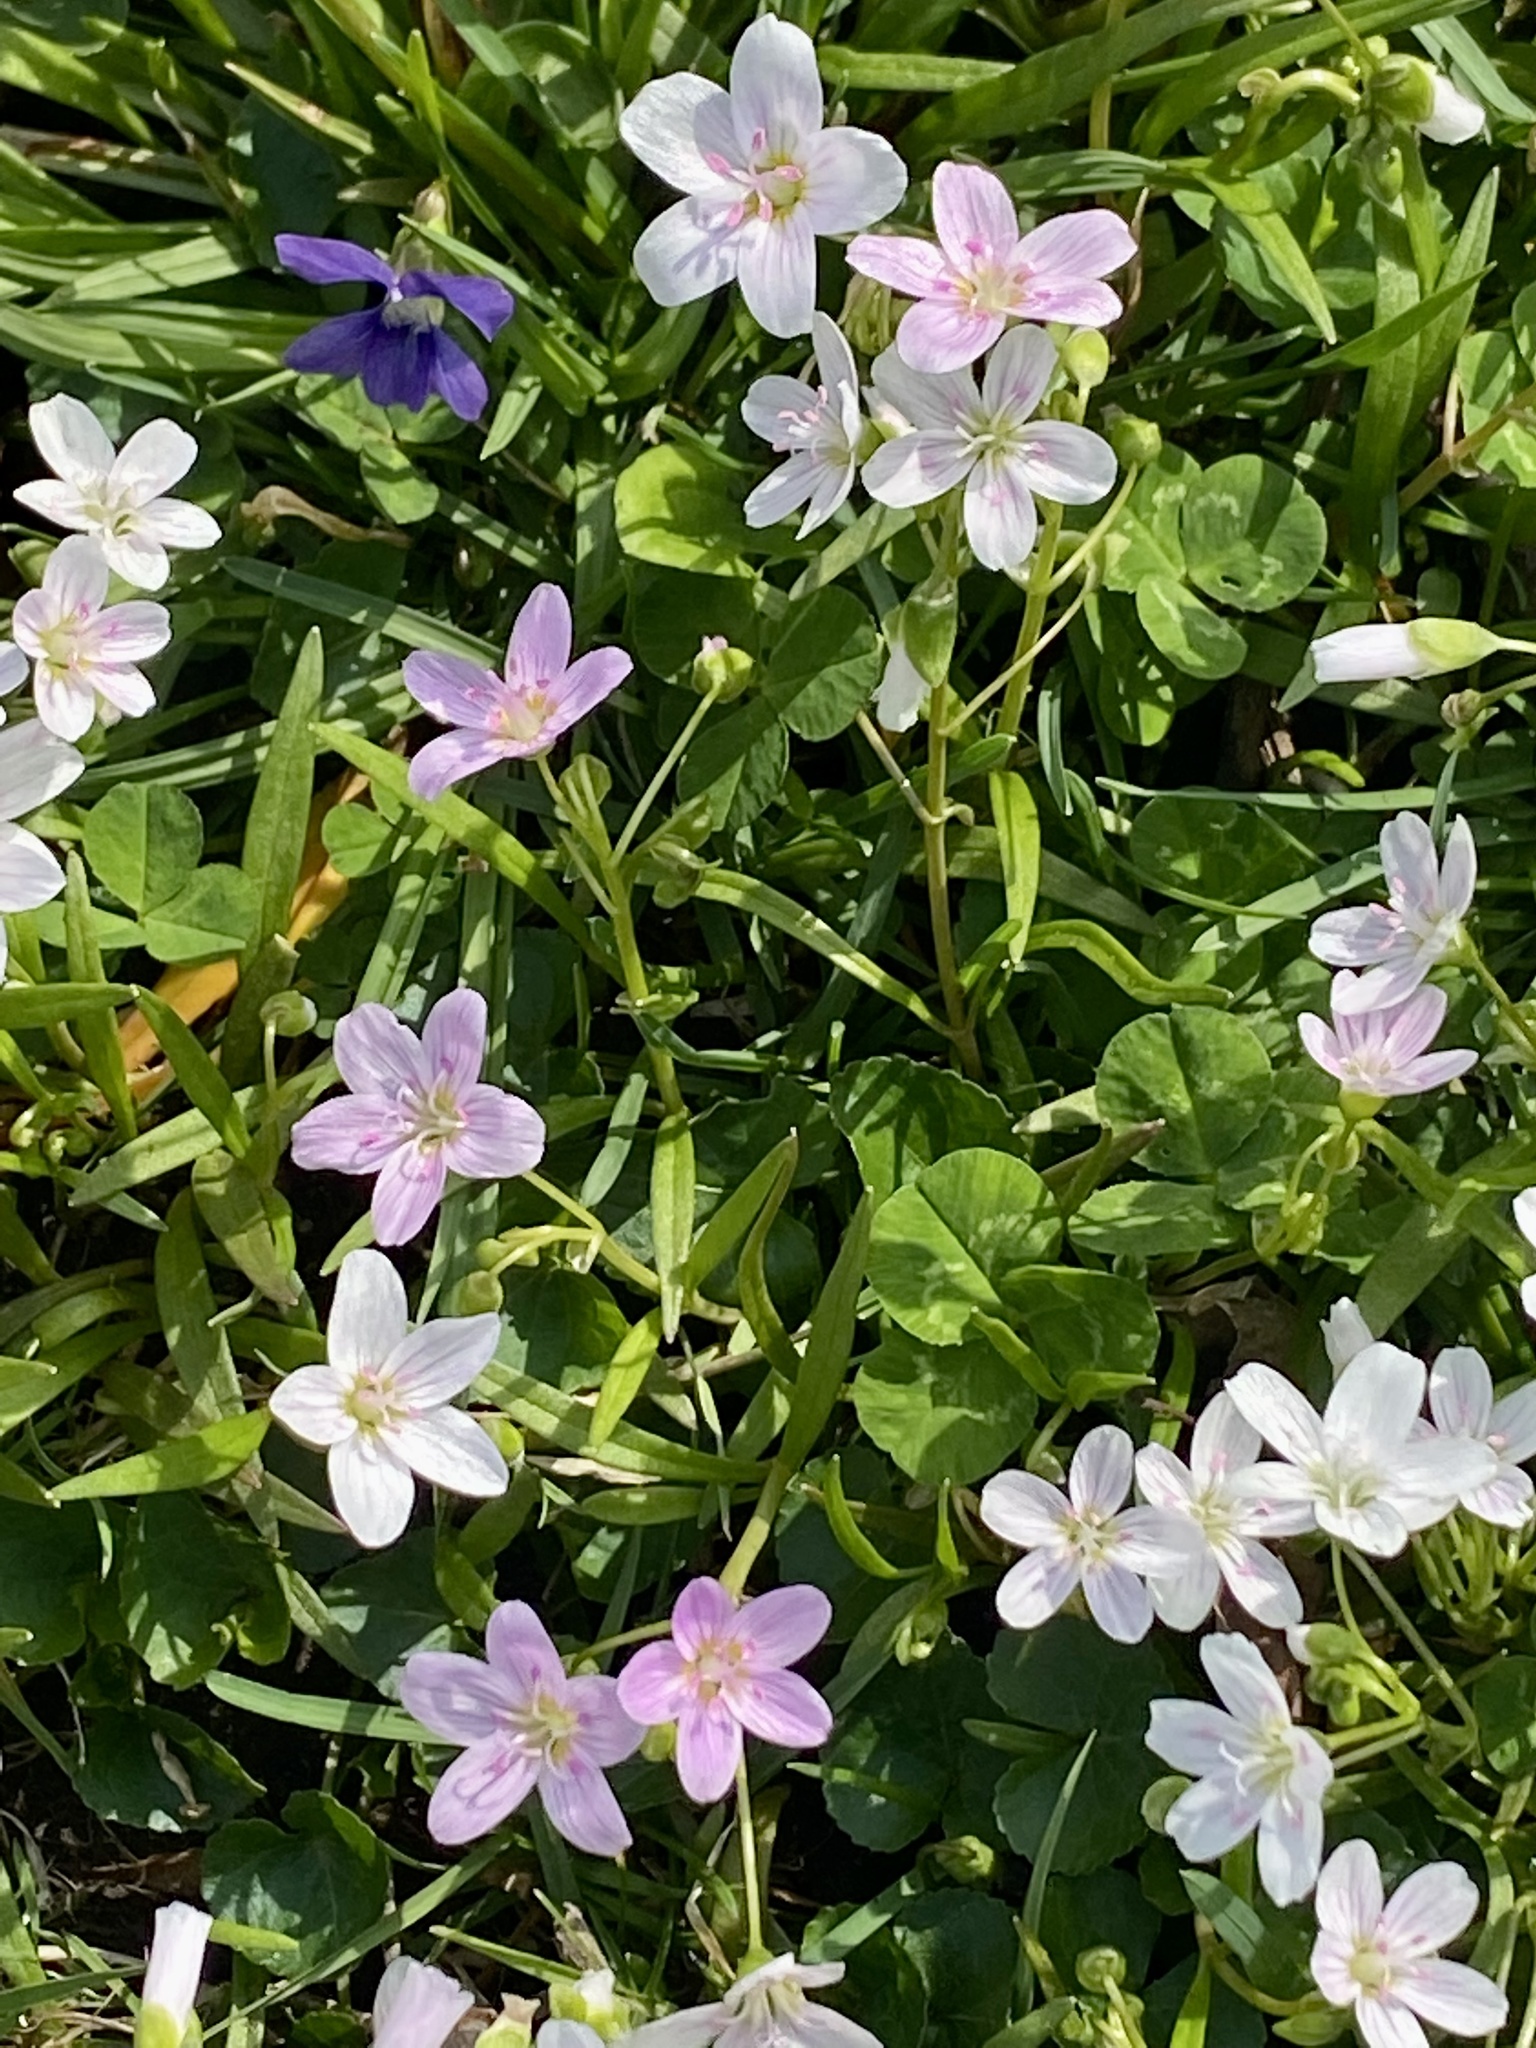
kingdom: Plantae
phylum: Tracheophyta
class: Magnoliopsida
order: Caryophyllales
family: Montiaceae
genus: Claytonia
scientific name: Claytonia virginica
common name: Virginia springbeauty
